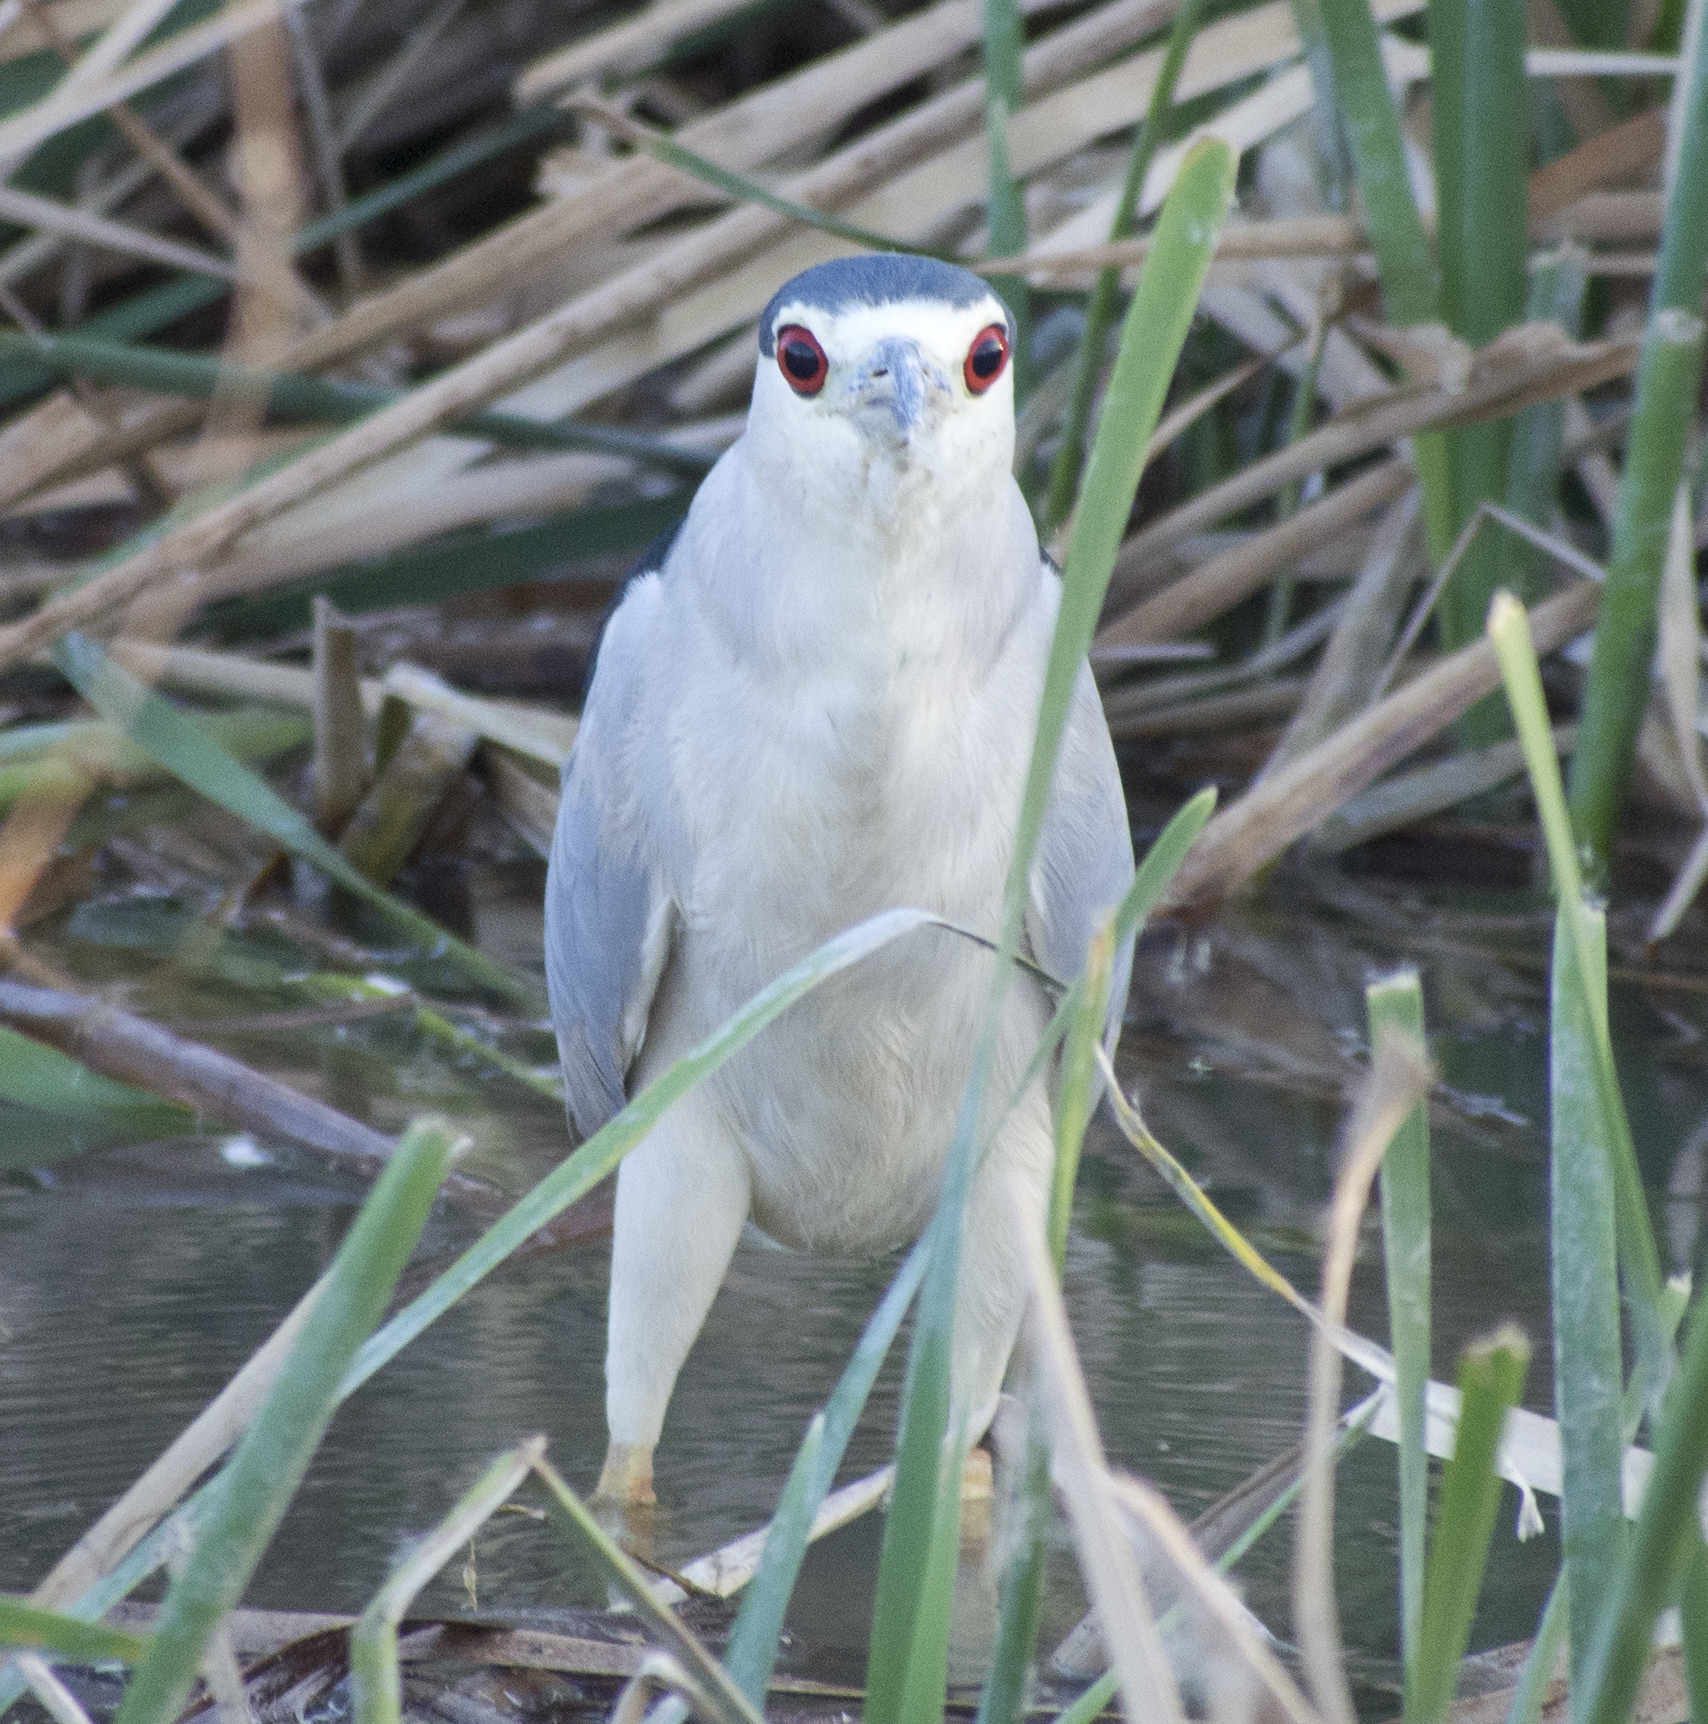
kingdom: Animalia
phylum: Chordata
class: Aves
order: Pelecaniformes
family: Ardeidae
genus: Nycticorax
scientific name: Nycticorax nycticorax
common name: Black-crowned night heron
